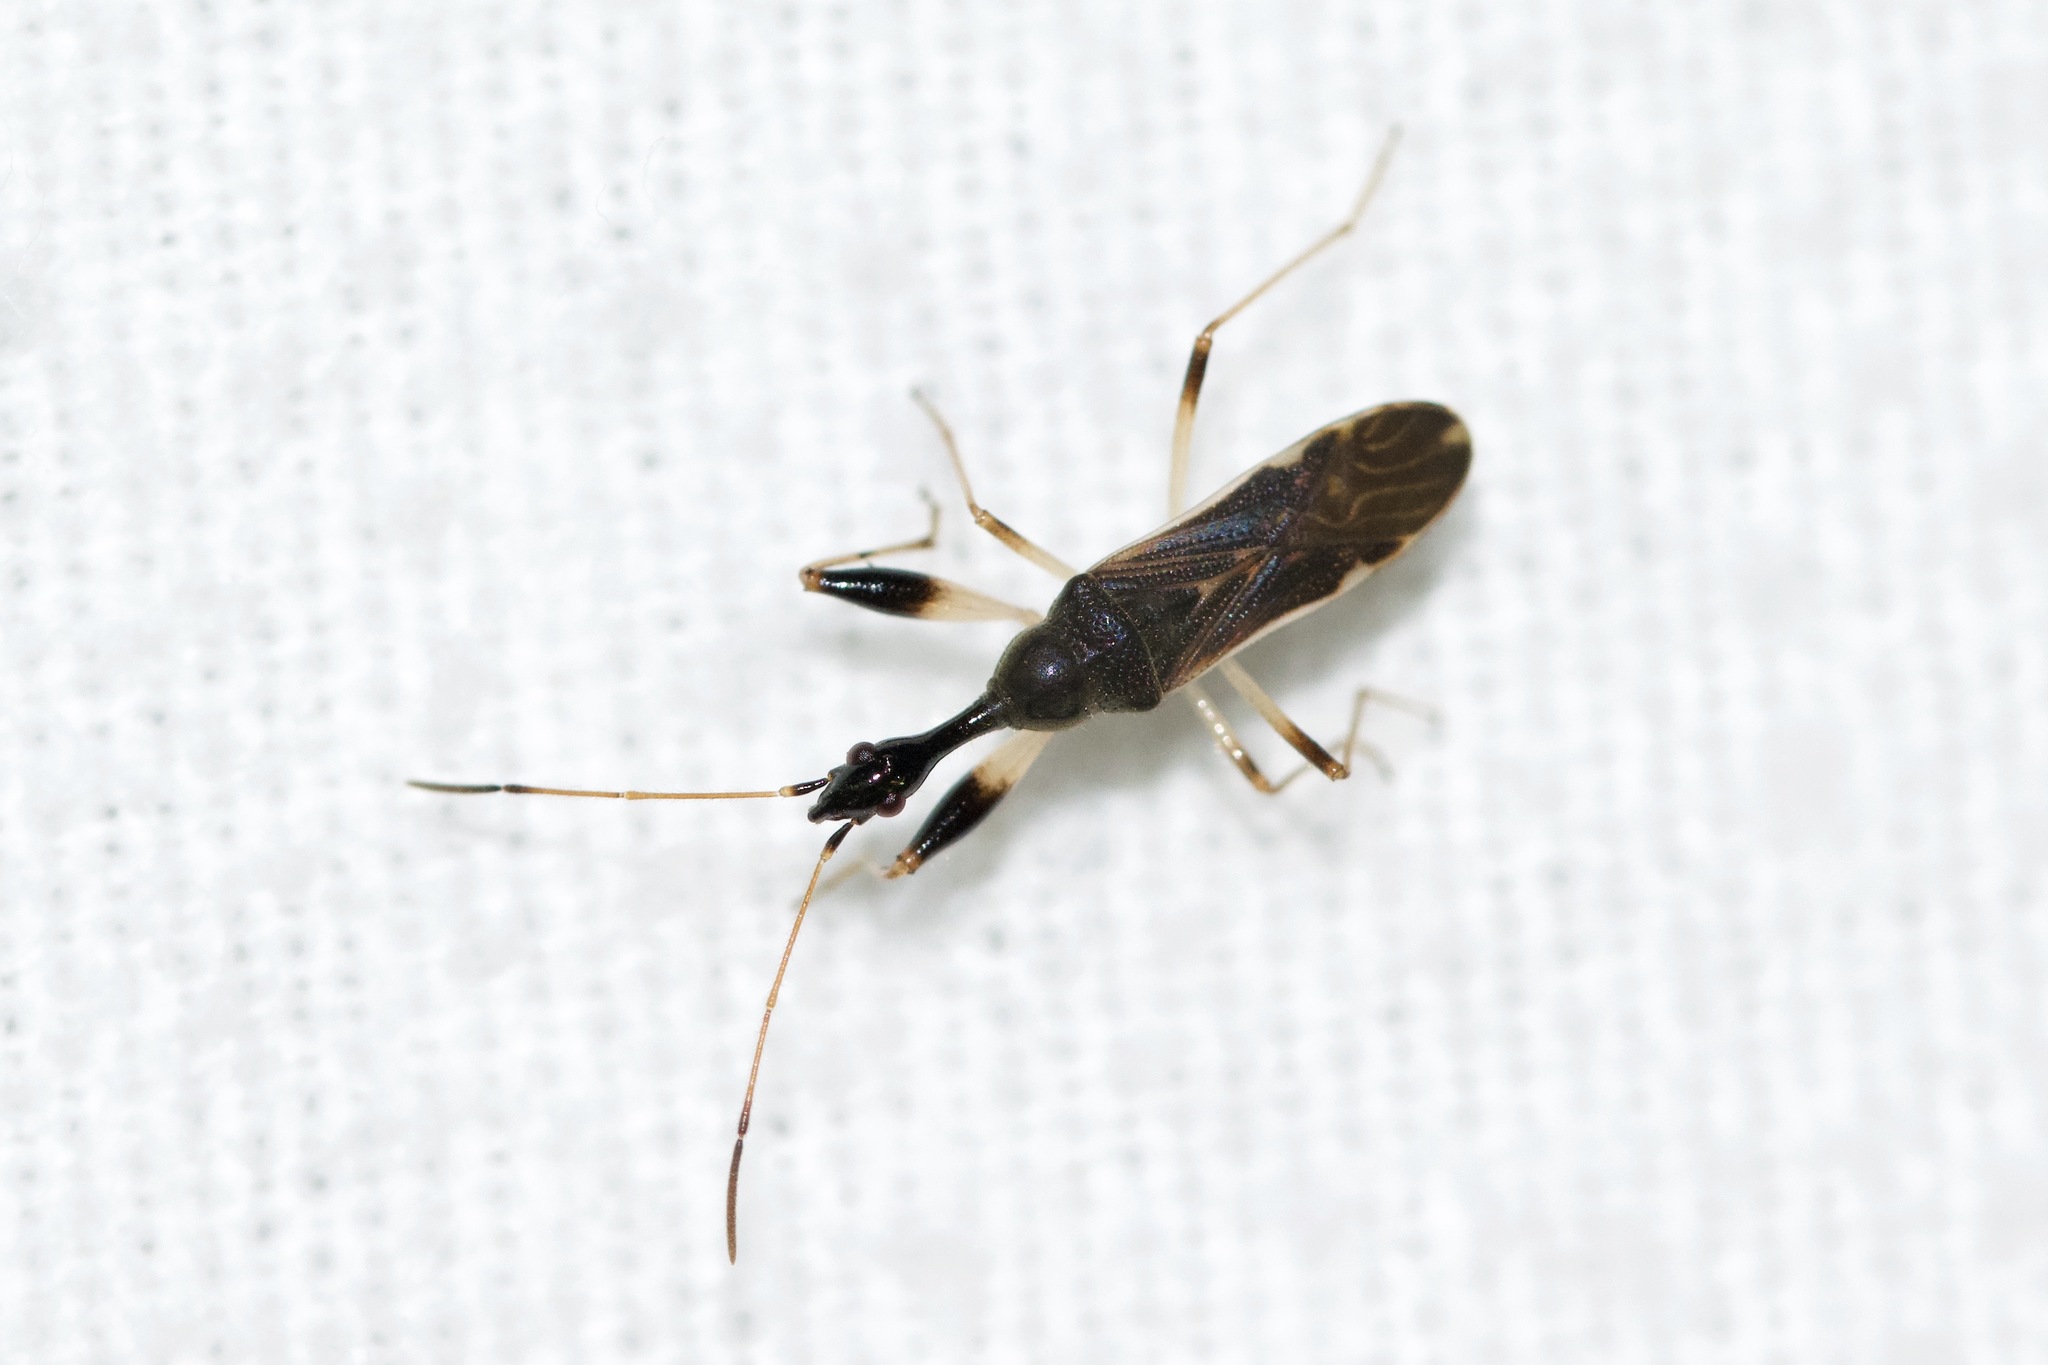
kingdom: Animalia
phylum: Arthropoda
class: Insecta
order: Hemiptera
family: Rhyparochromidae
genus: Myodocha
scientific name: Myodocha serripes
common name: Long-necked seed bug
